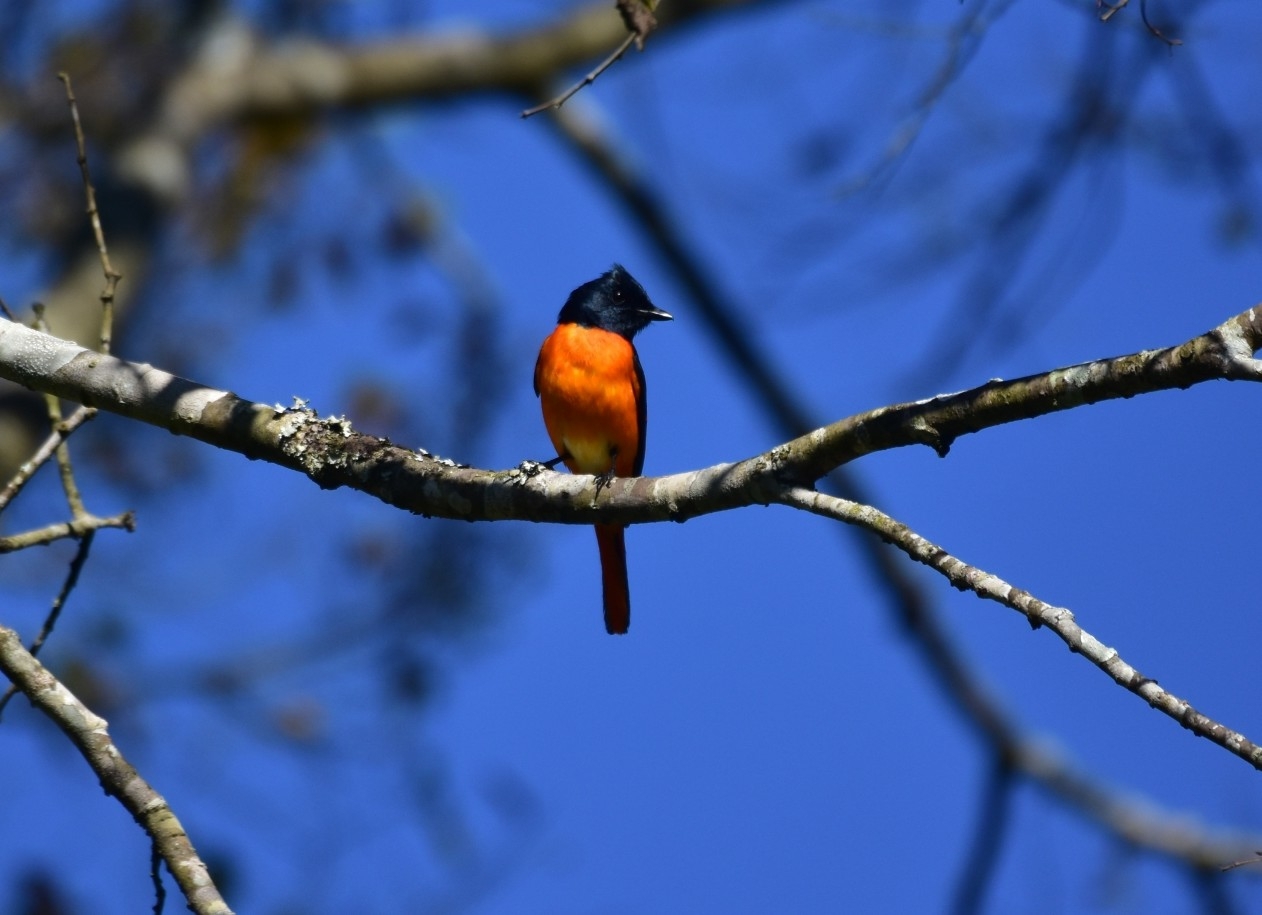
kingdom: Animalia
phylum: Chordata
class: Aves
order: Passeriformes
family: Campephagidae
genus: Pericrocotus
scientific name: Pericrocotus flammeus
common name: Orange minivet
